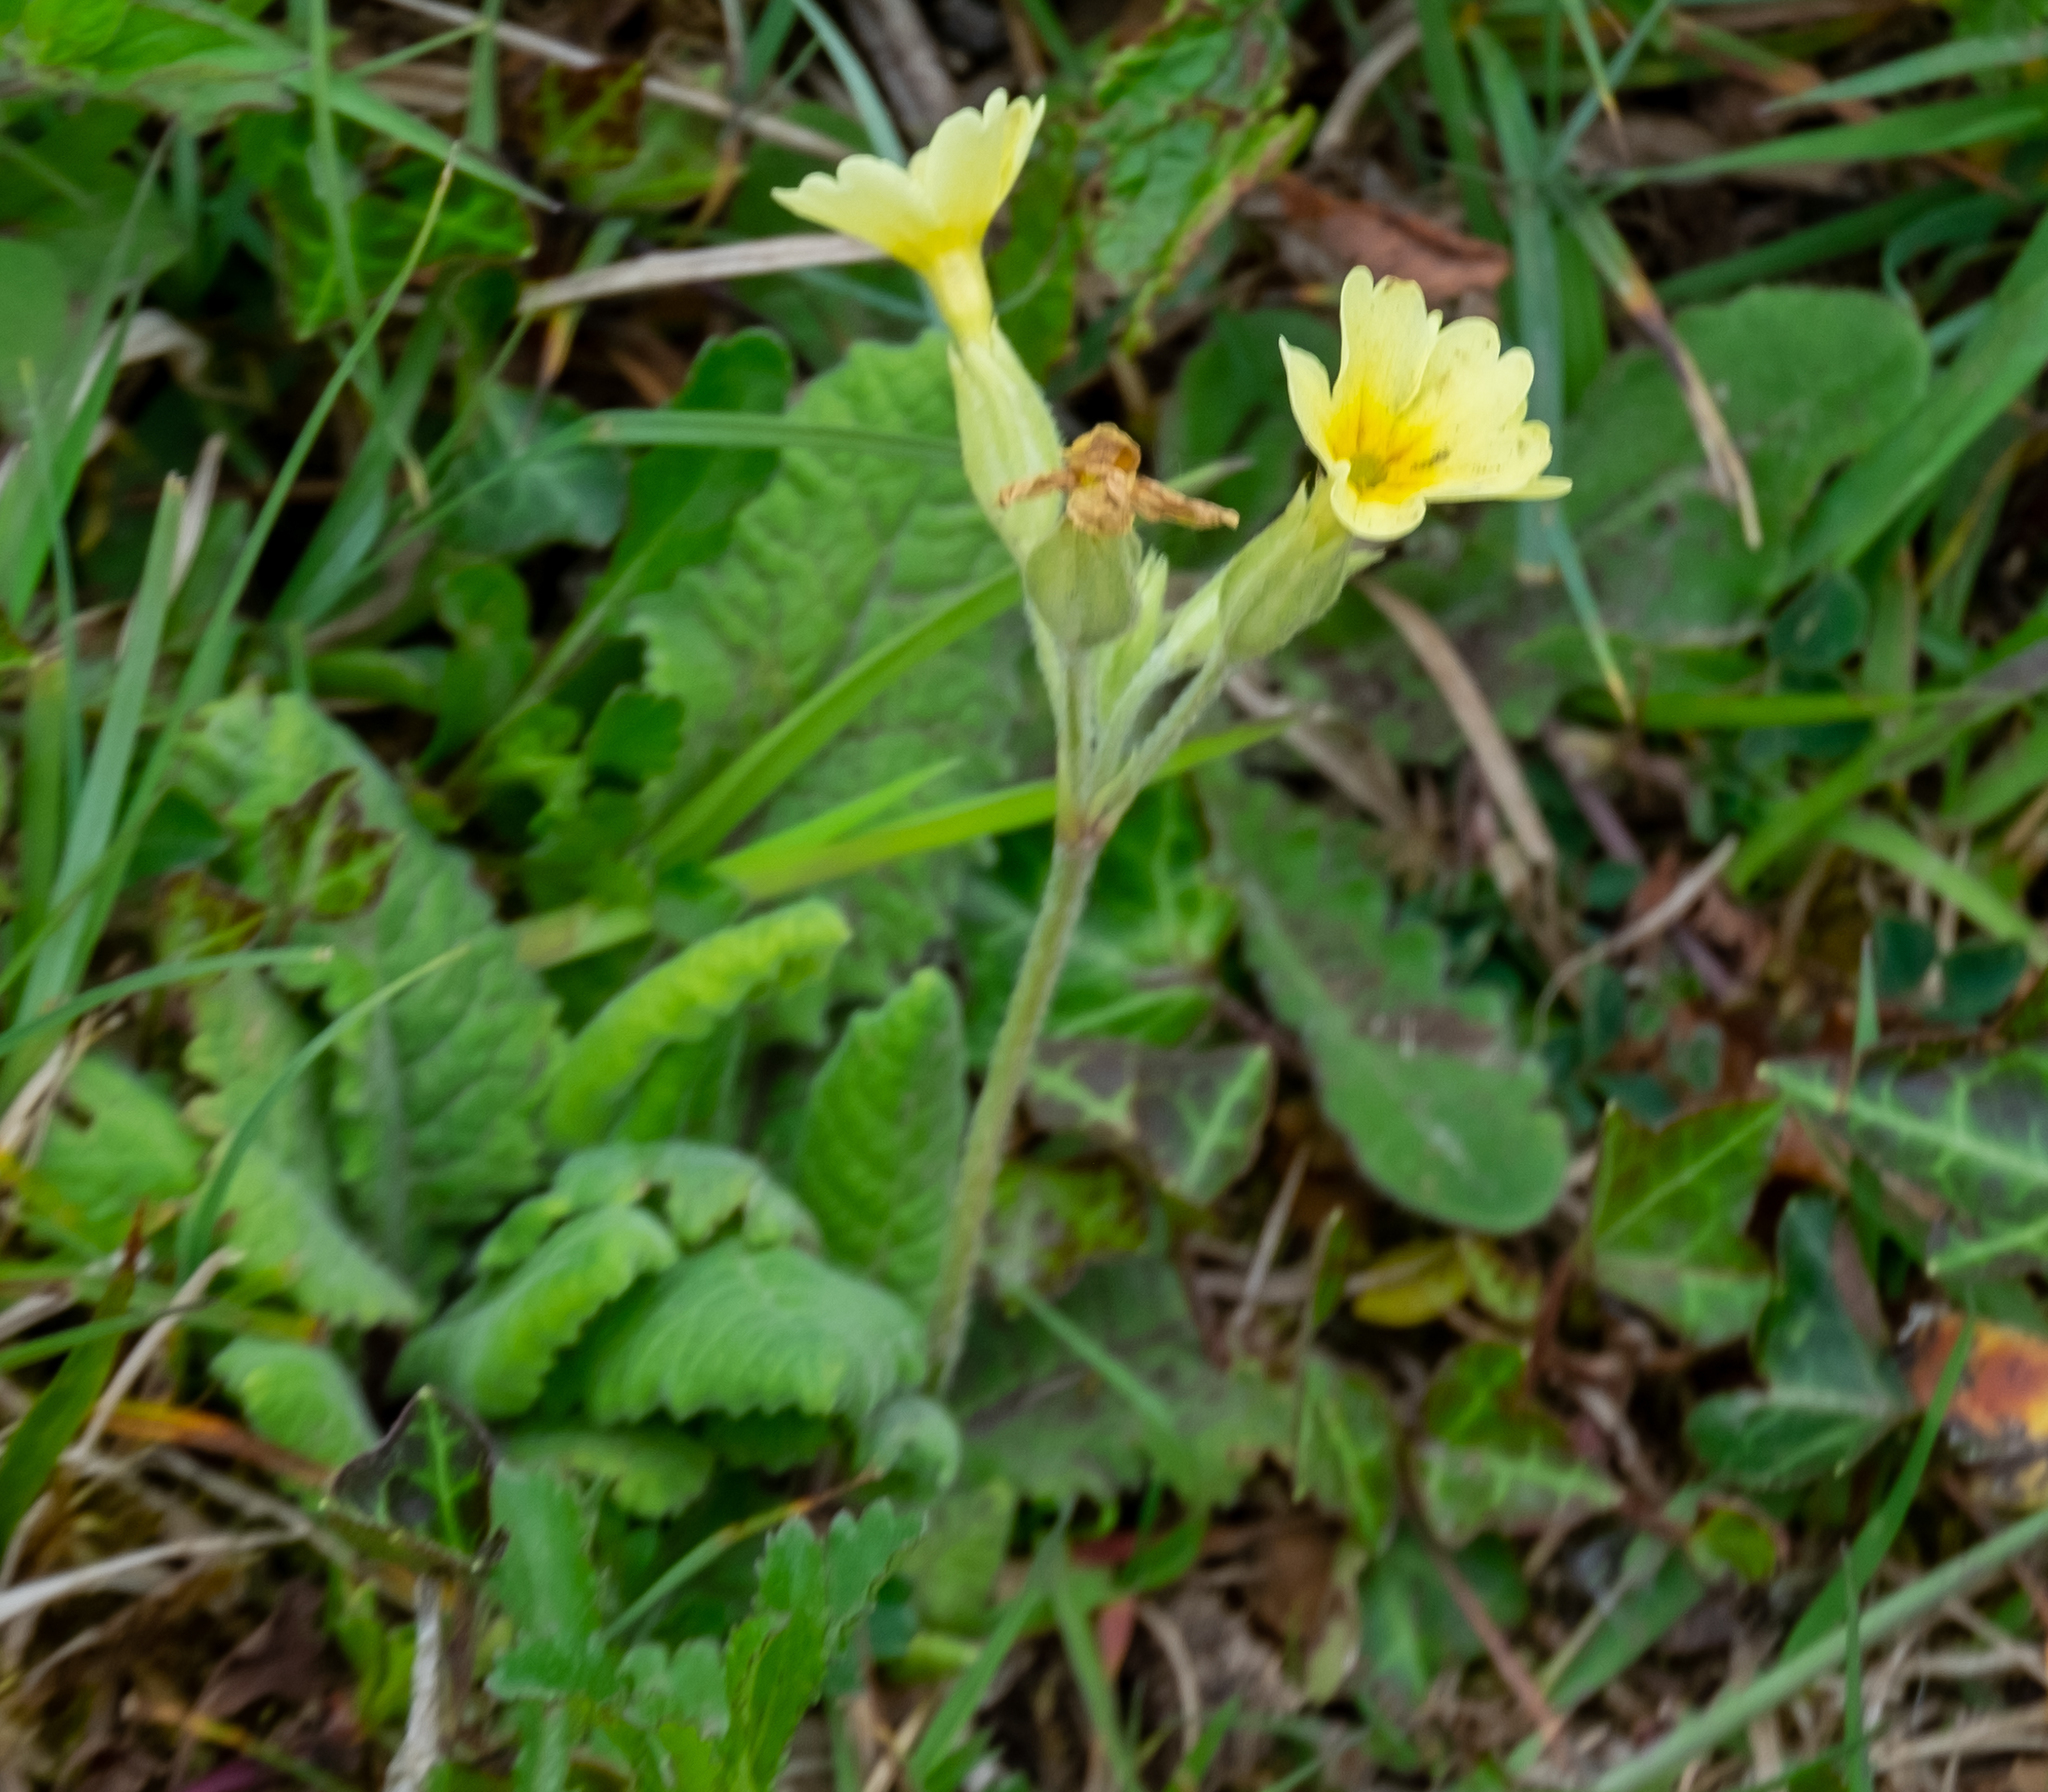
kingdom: Plantae
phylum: Tracheophyta
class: Magnoliopsida
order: Ericales
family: Primulaceae
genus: Primula
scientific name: Primula veris
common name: Cowslip
